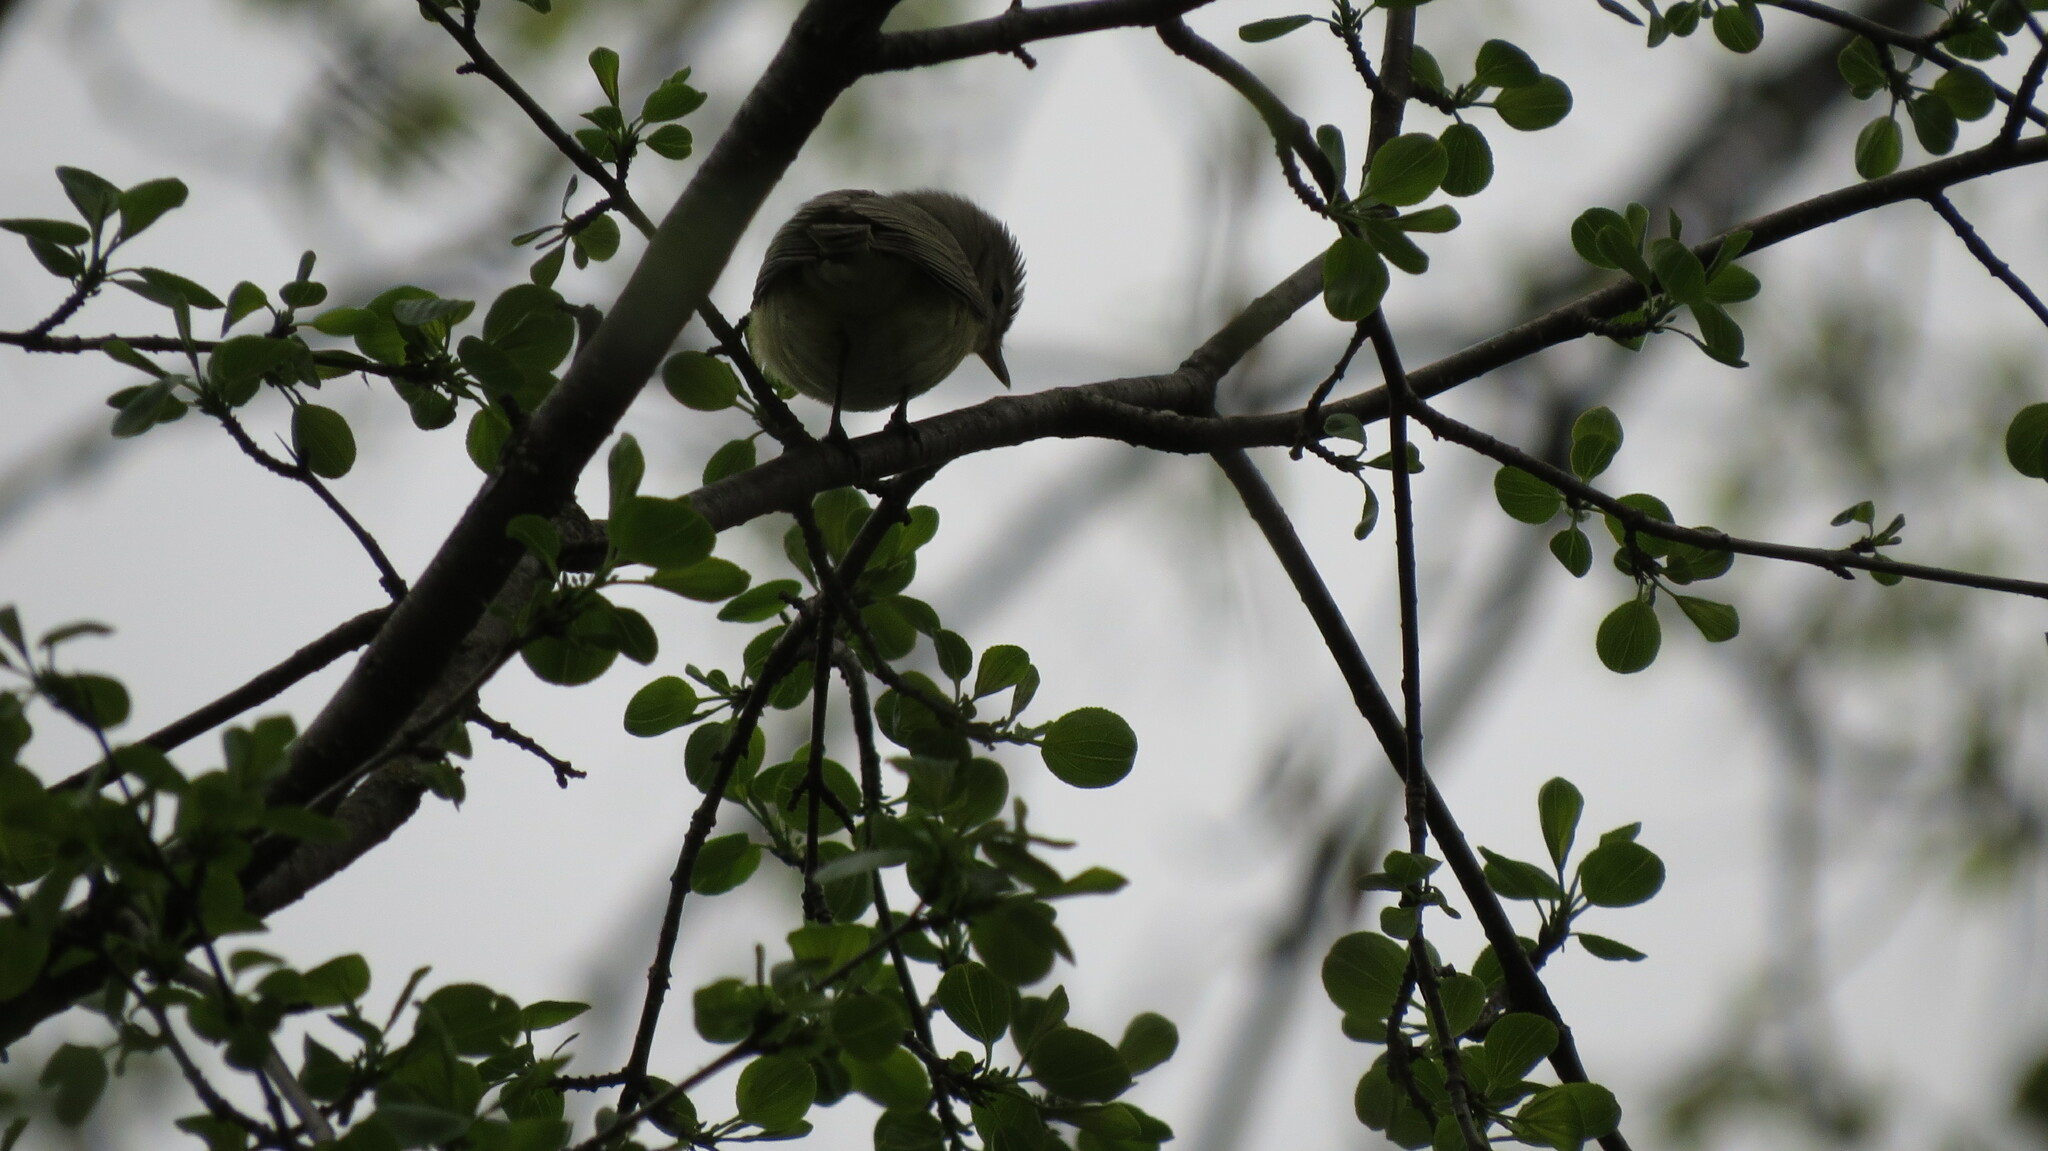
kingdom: Animalia
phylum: Chordata
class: Aves
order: Passeriformes
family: Vireonidae
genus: Vireo
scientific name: Vireo gilvus
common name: Warbling vireo
